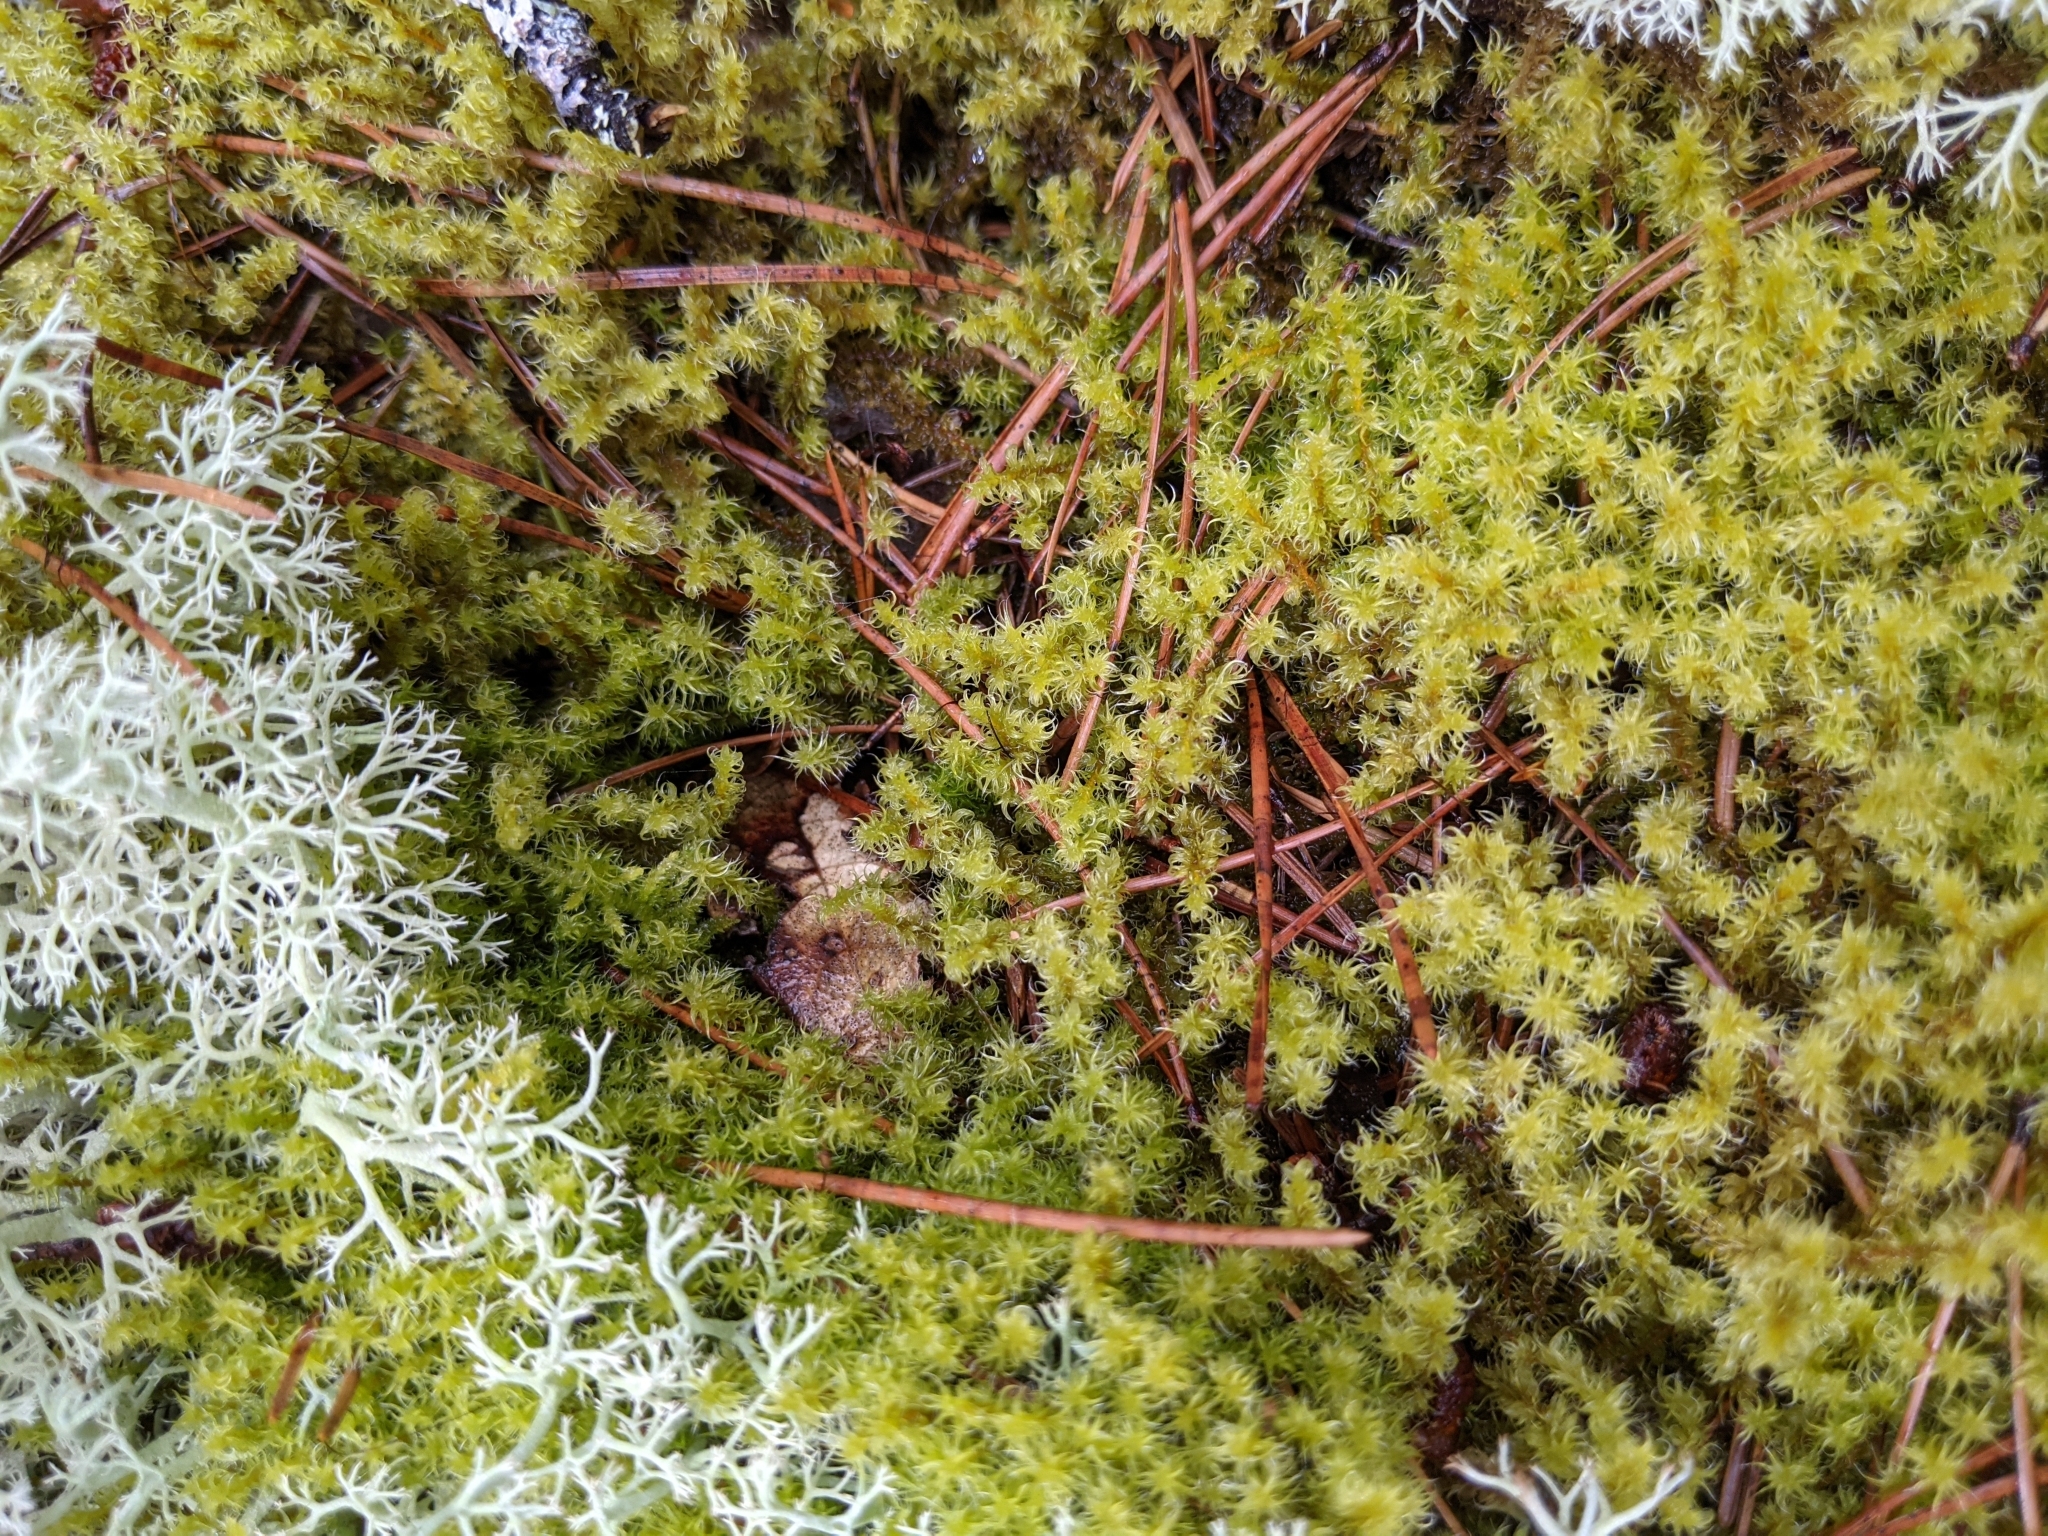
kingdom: Plantae
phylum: Bryophyta
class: Bryopsida
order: Grimmiales
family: Grimmiaceae
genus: Niphotrichum
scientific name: Niphotrichum elongatum
